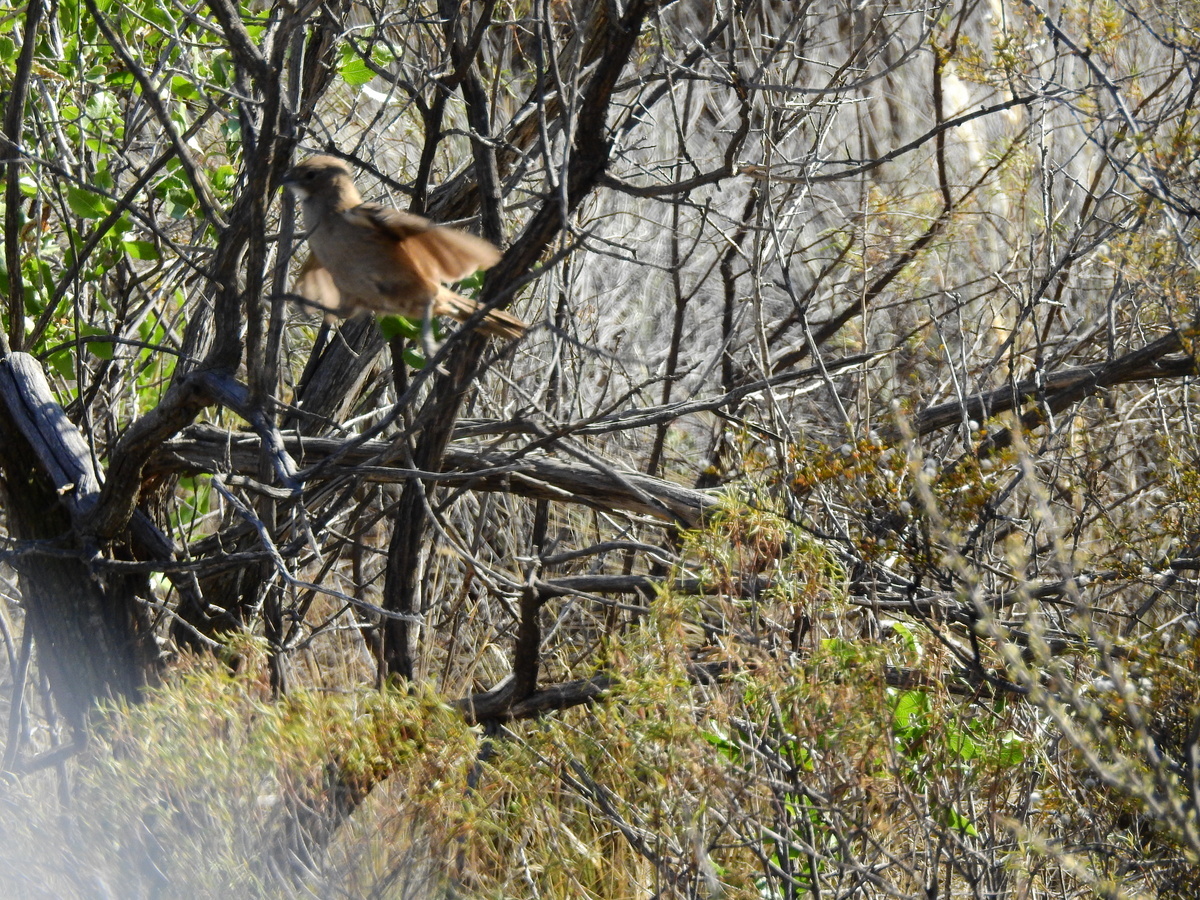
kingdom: Animalia
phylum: Chordata
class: Aves
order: Passeriformes
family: Furnariidae
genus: Pseudoseisura
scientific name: Pseudoseisura gutturalis
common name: White-throated cacholote
